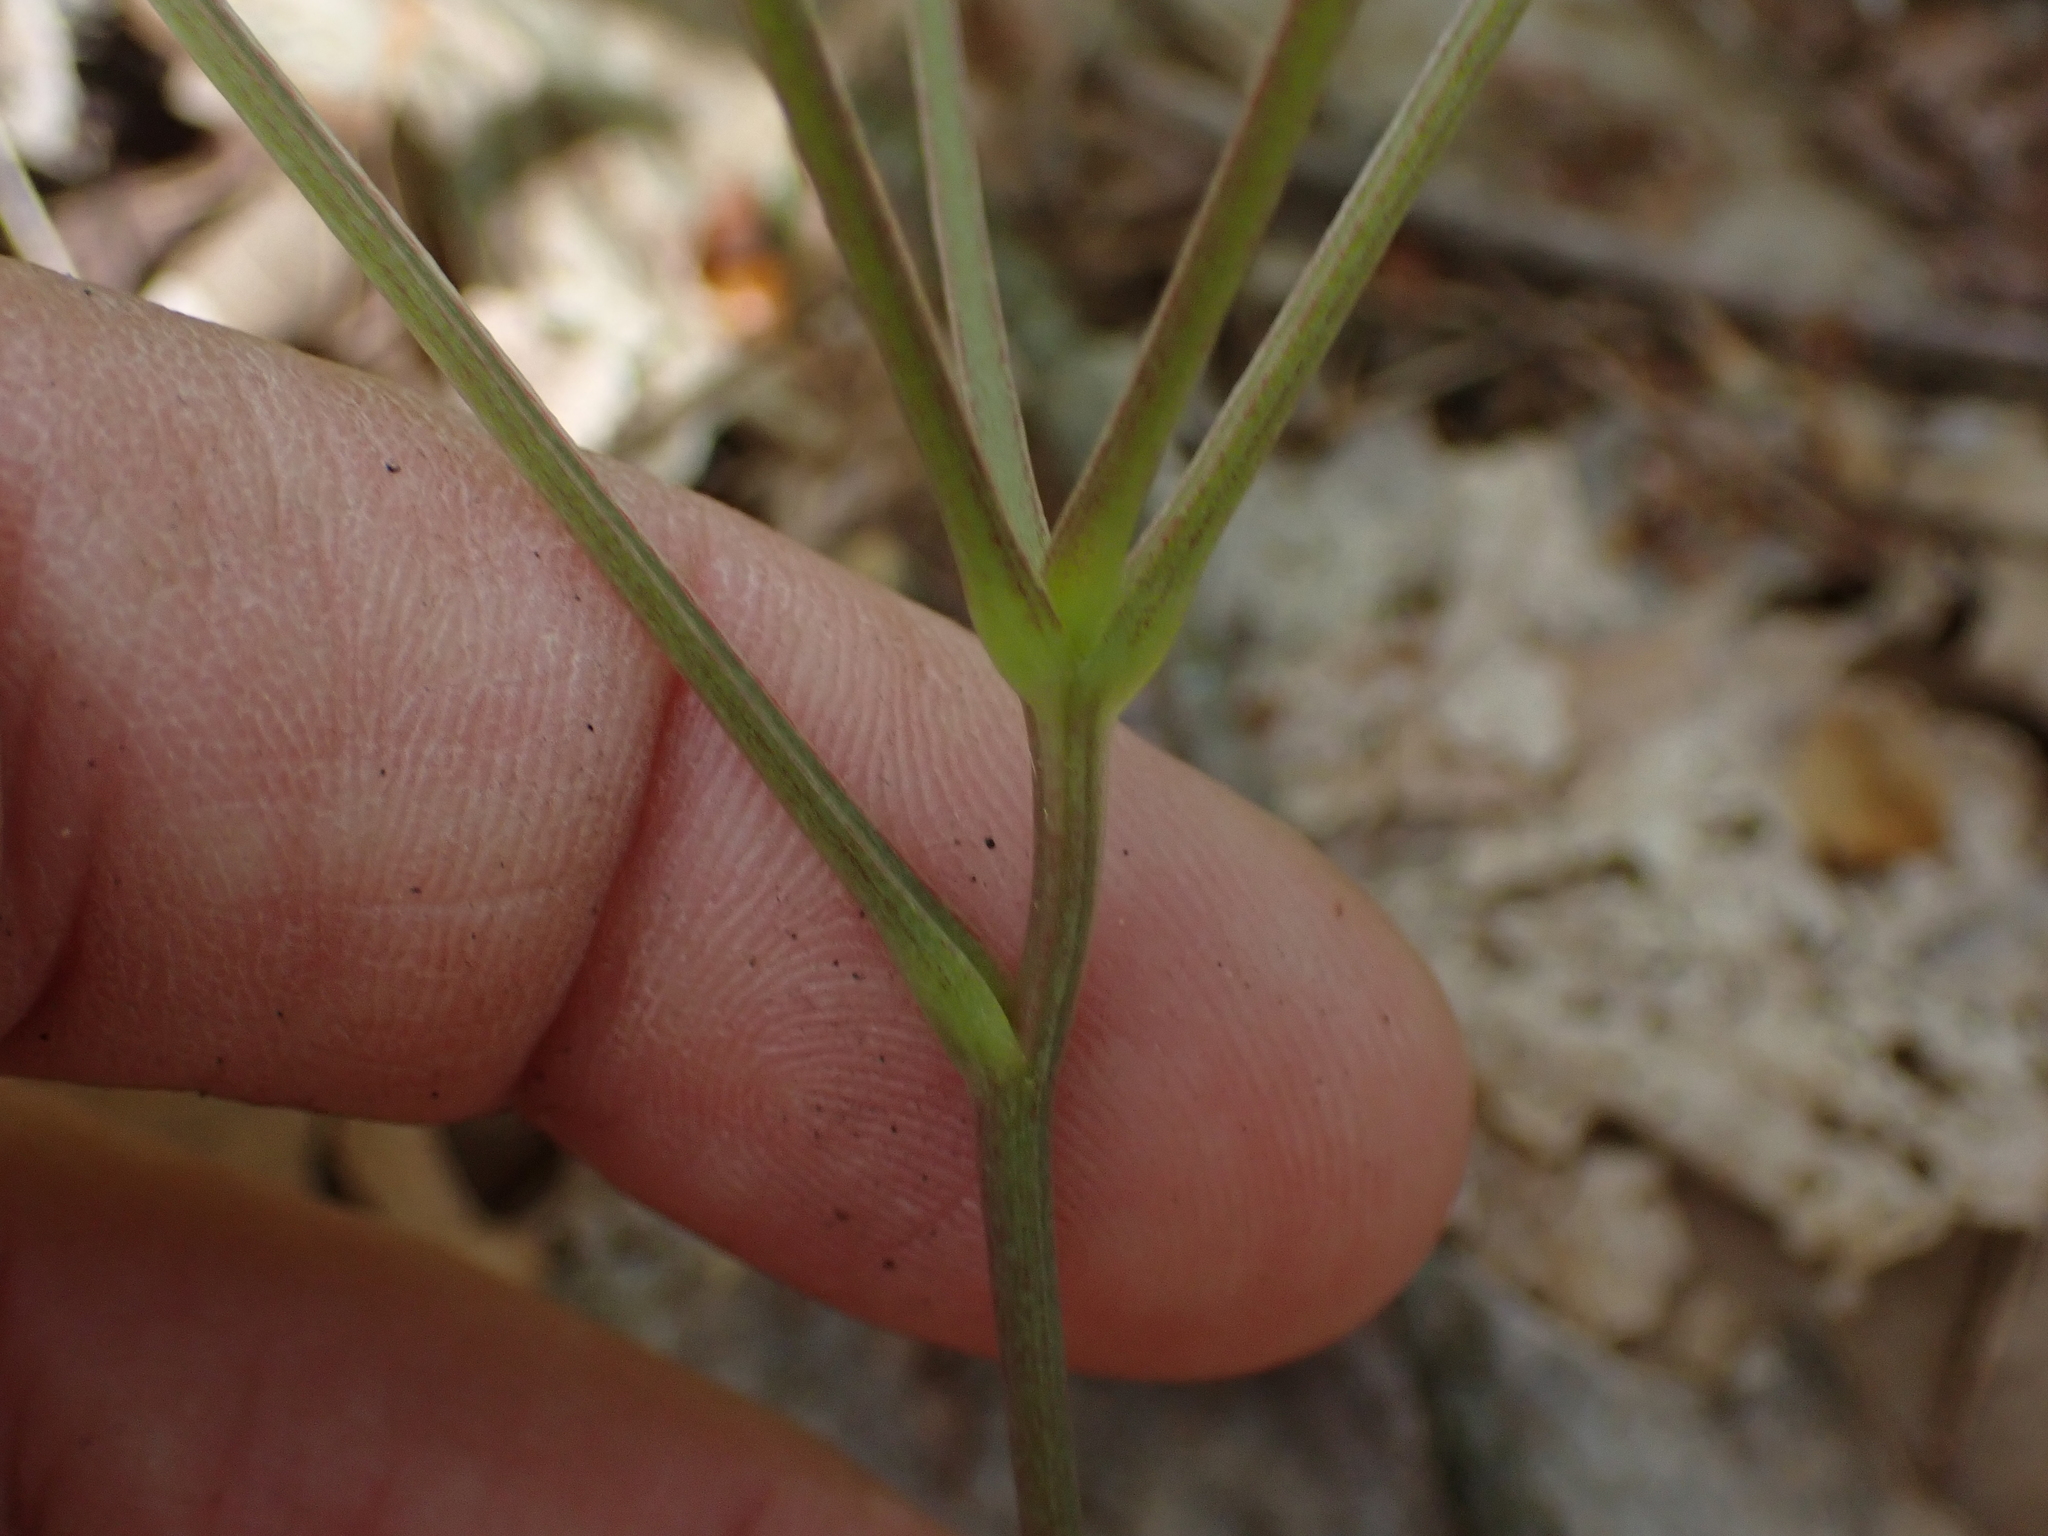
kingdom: Plantae
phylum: Tracheophyta
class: Liliopsida
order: Liliales
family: Smilacaceae
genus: Smilax
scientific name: Smilax ecirrhata
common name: Upright carrionflower
